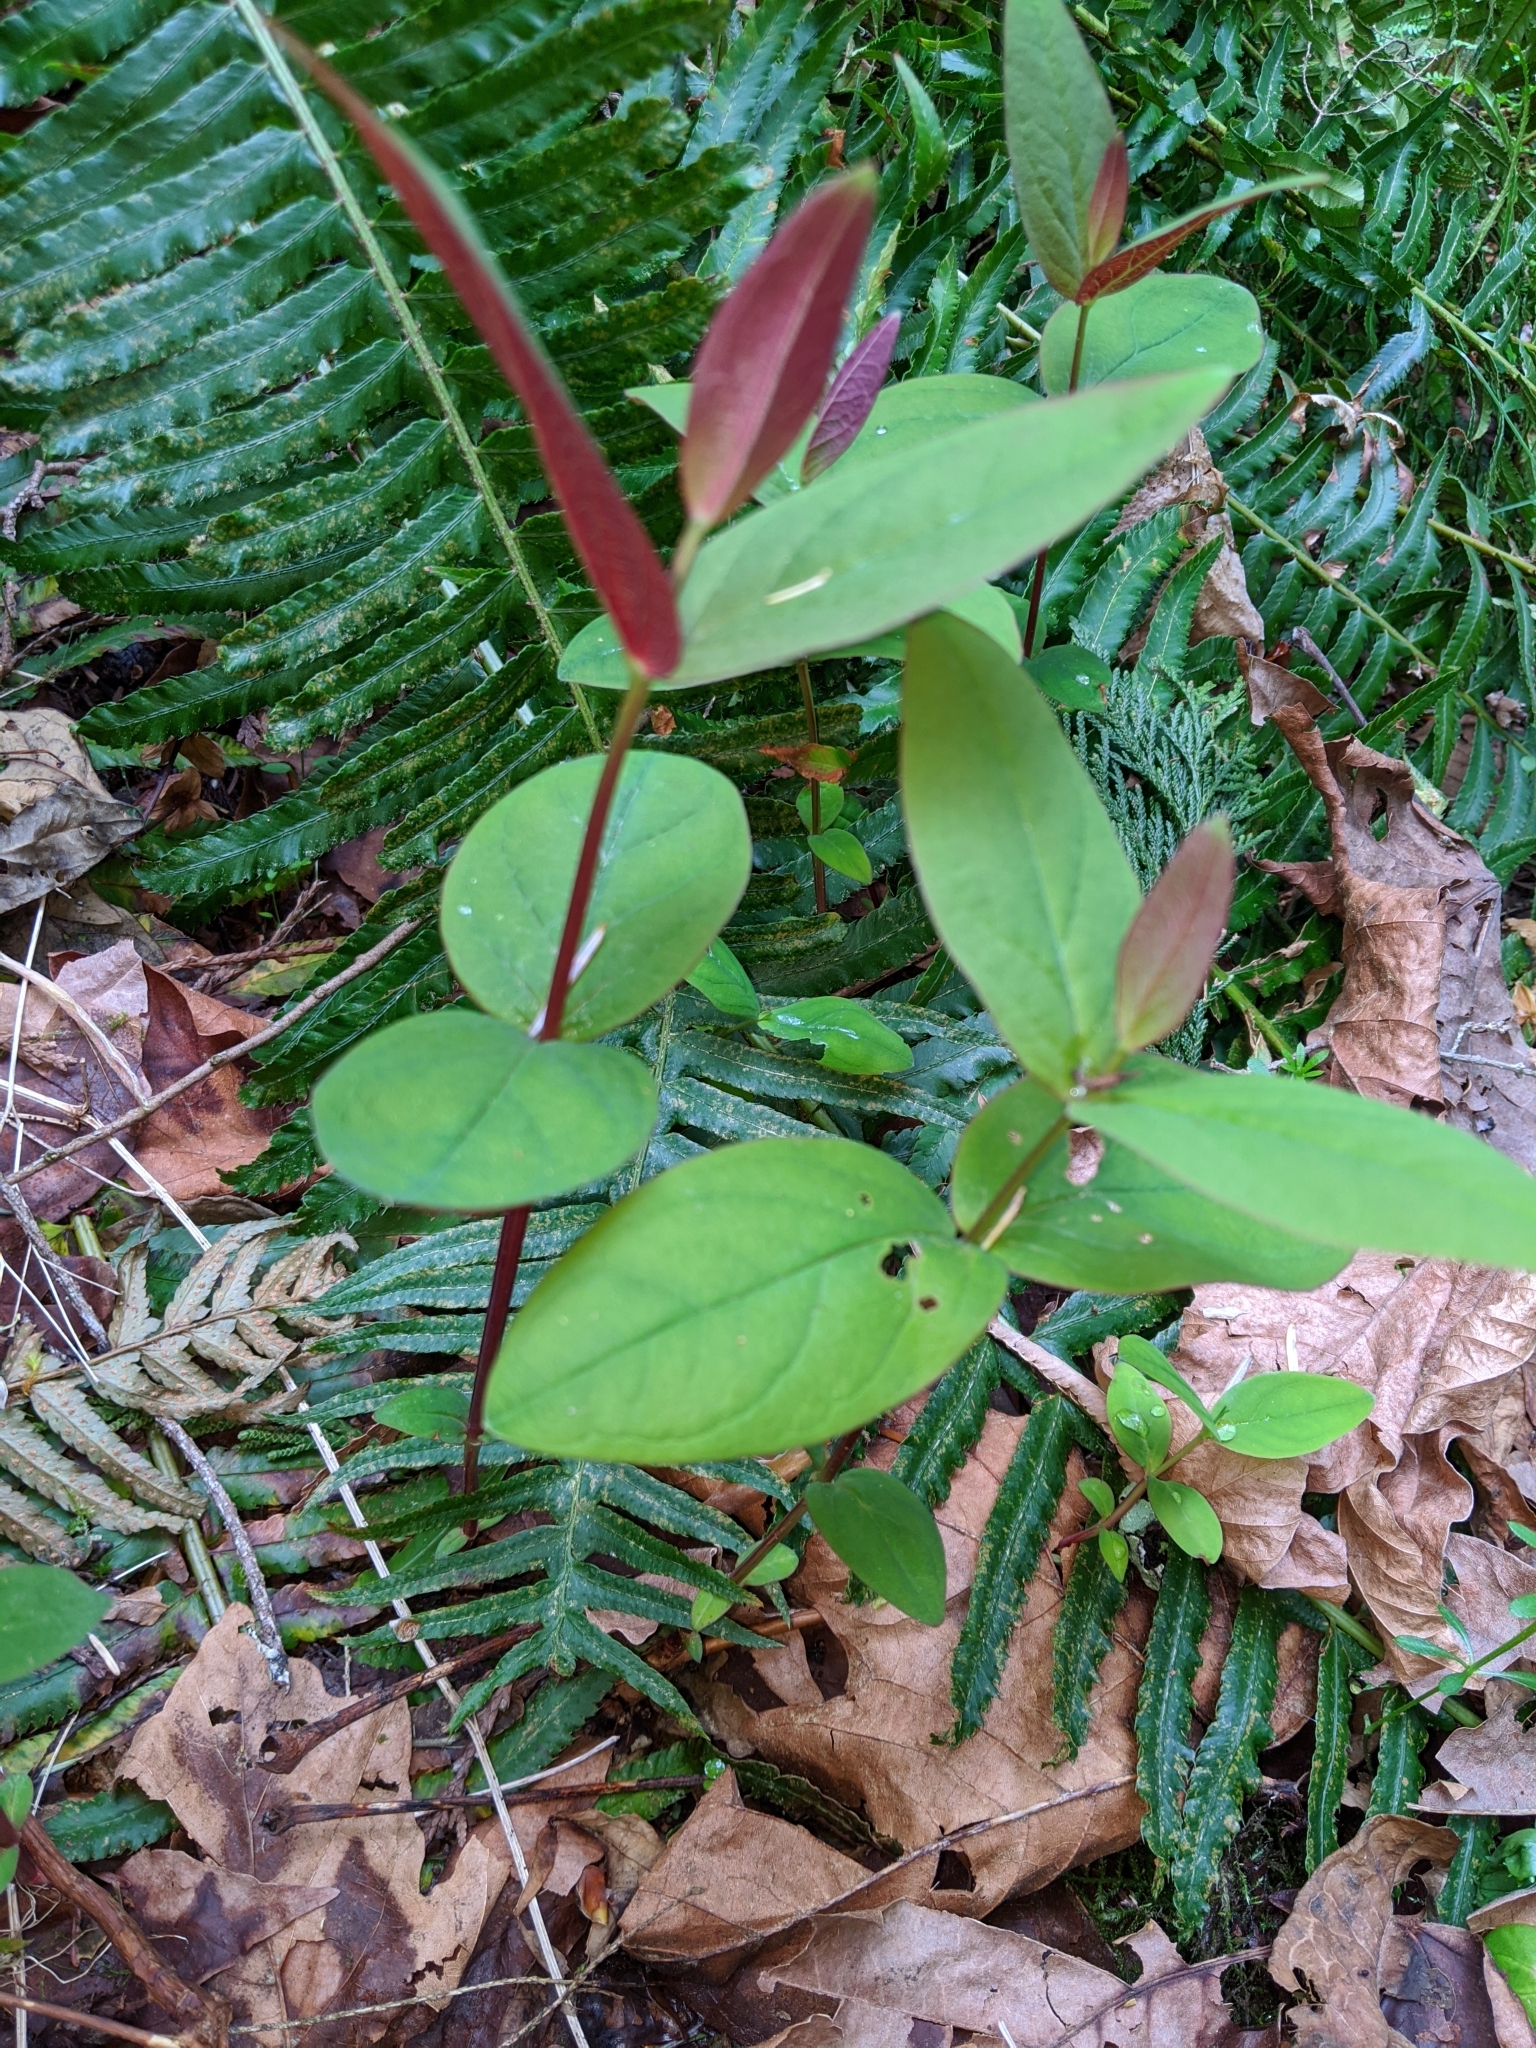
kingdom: Plantae
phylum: Tracheophyta
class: Magnoliopsida
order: Malpighiales
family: Hypericaceae
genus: Hypericum
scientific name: Hypericum androsaemum
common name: Sweet-amber
